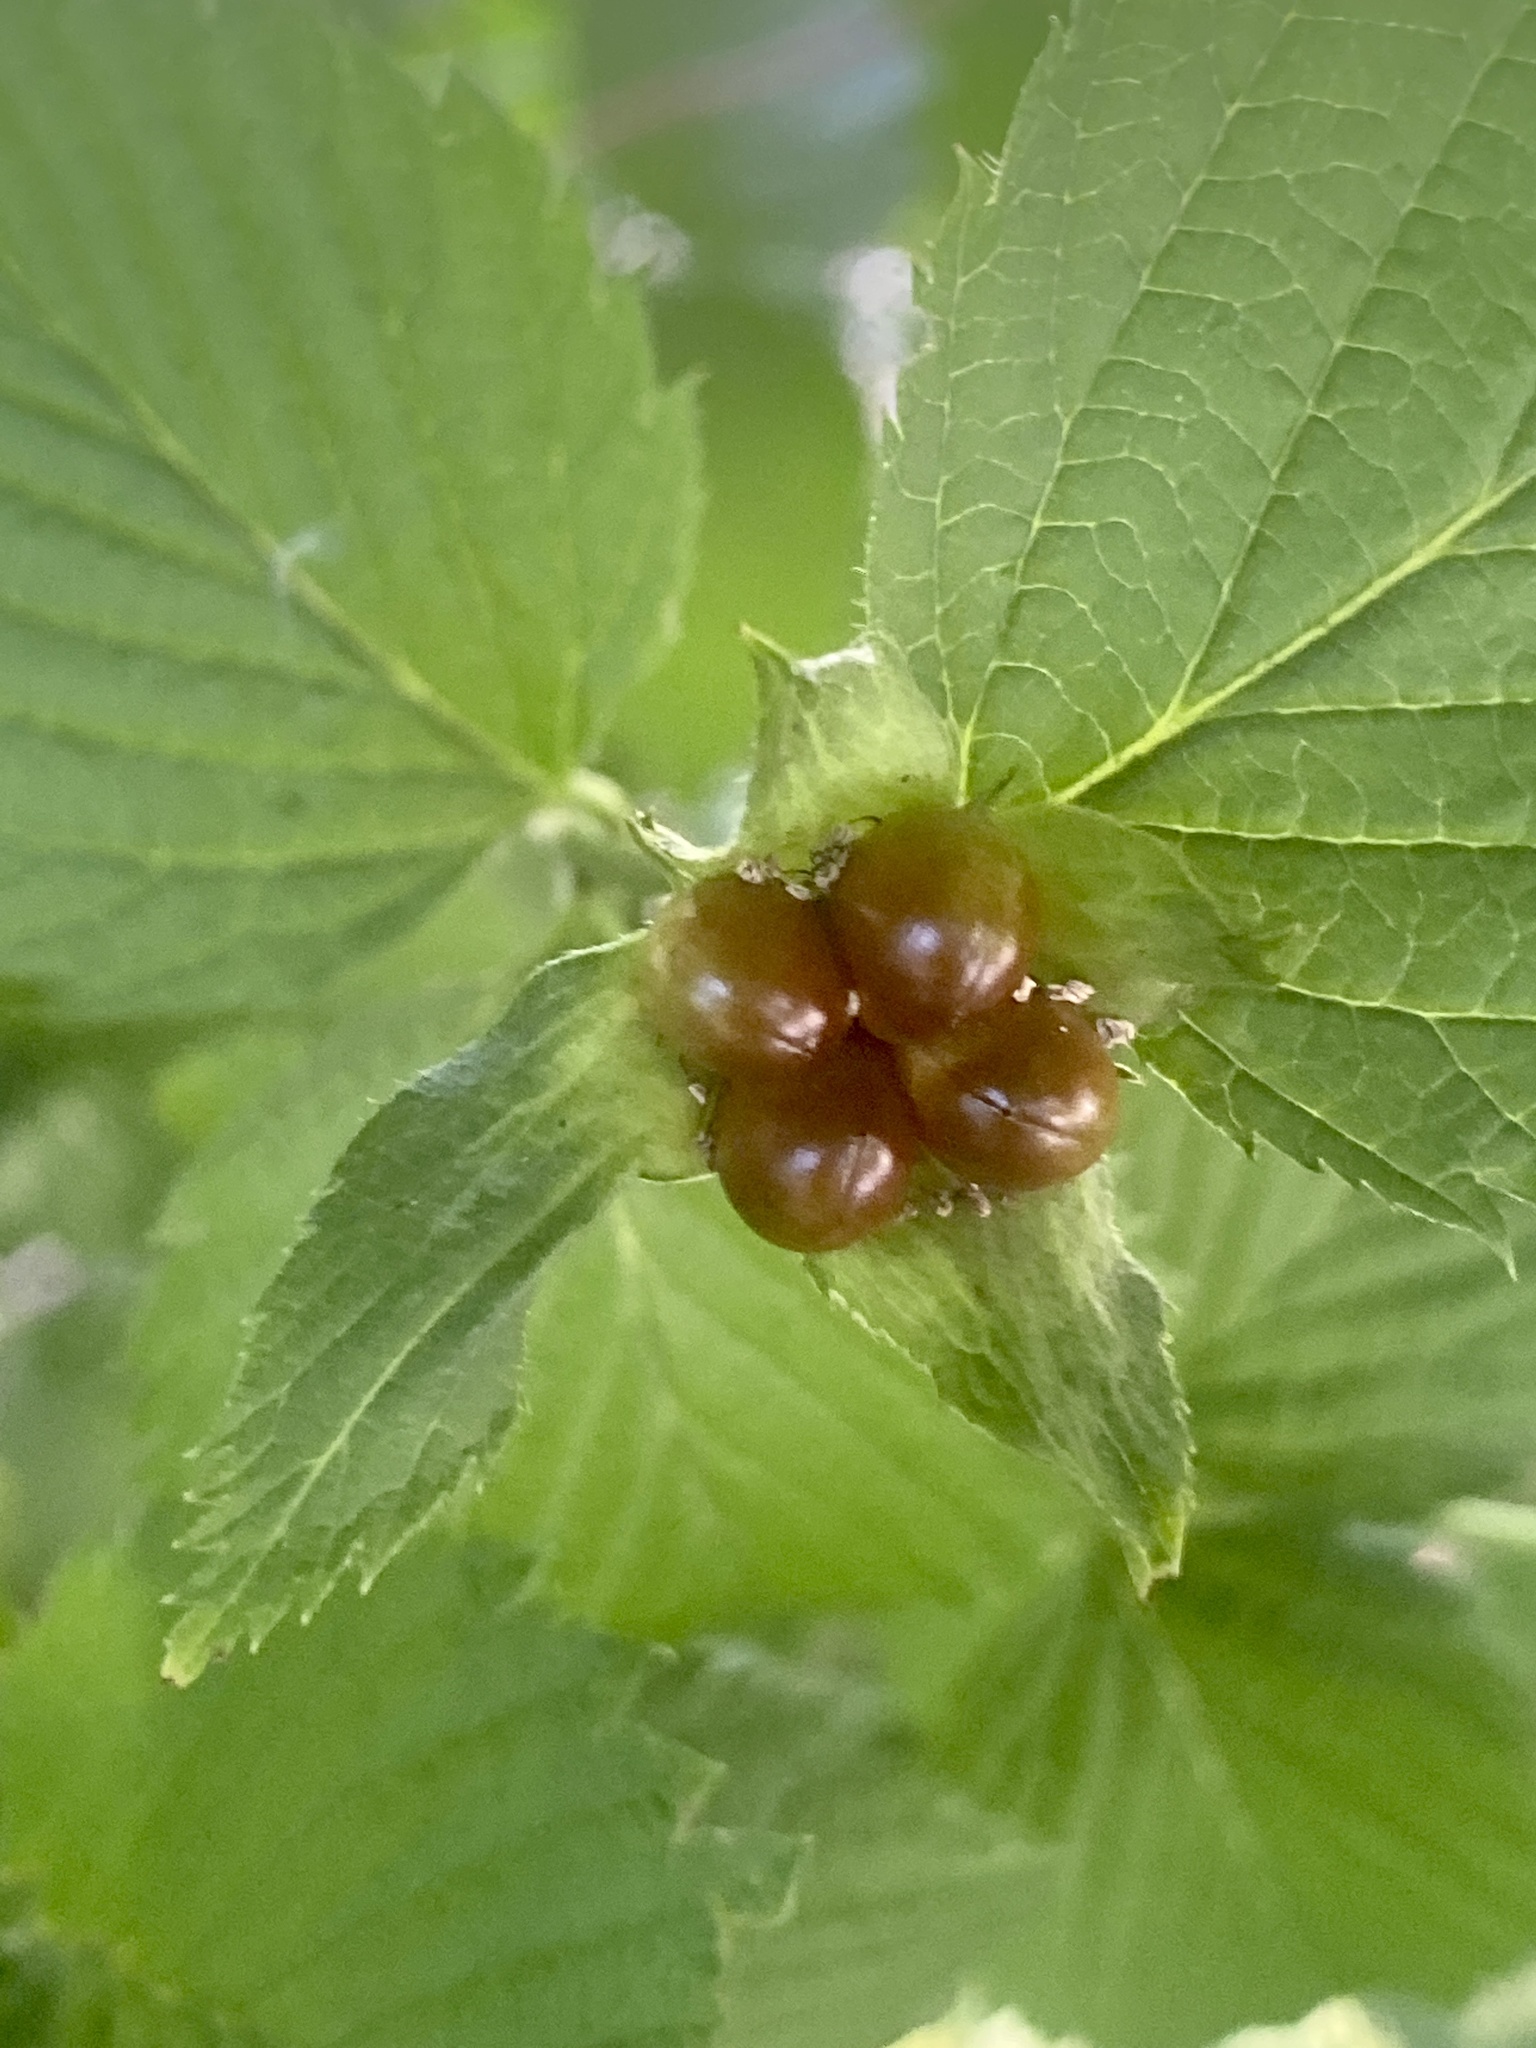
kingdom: Plantae
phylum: Tracheophyta
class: Magnoliopsida
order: Rosales
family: Rosaceae
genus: Rhodotypos
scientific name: Rhodotypos scandens
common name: Jetbead
